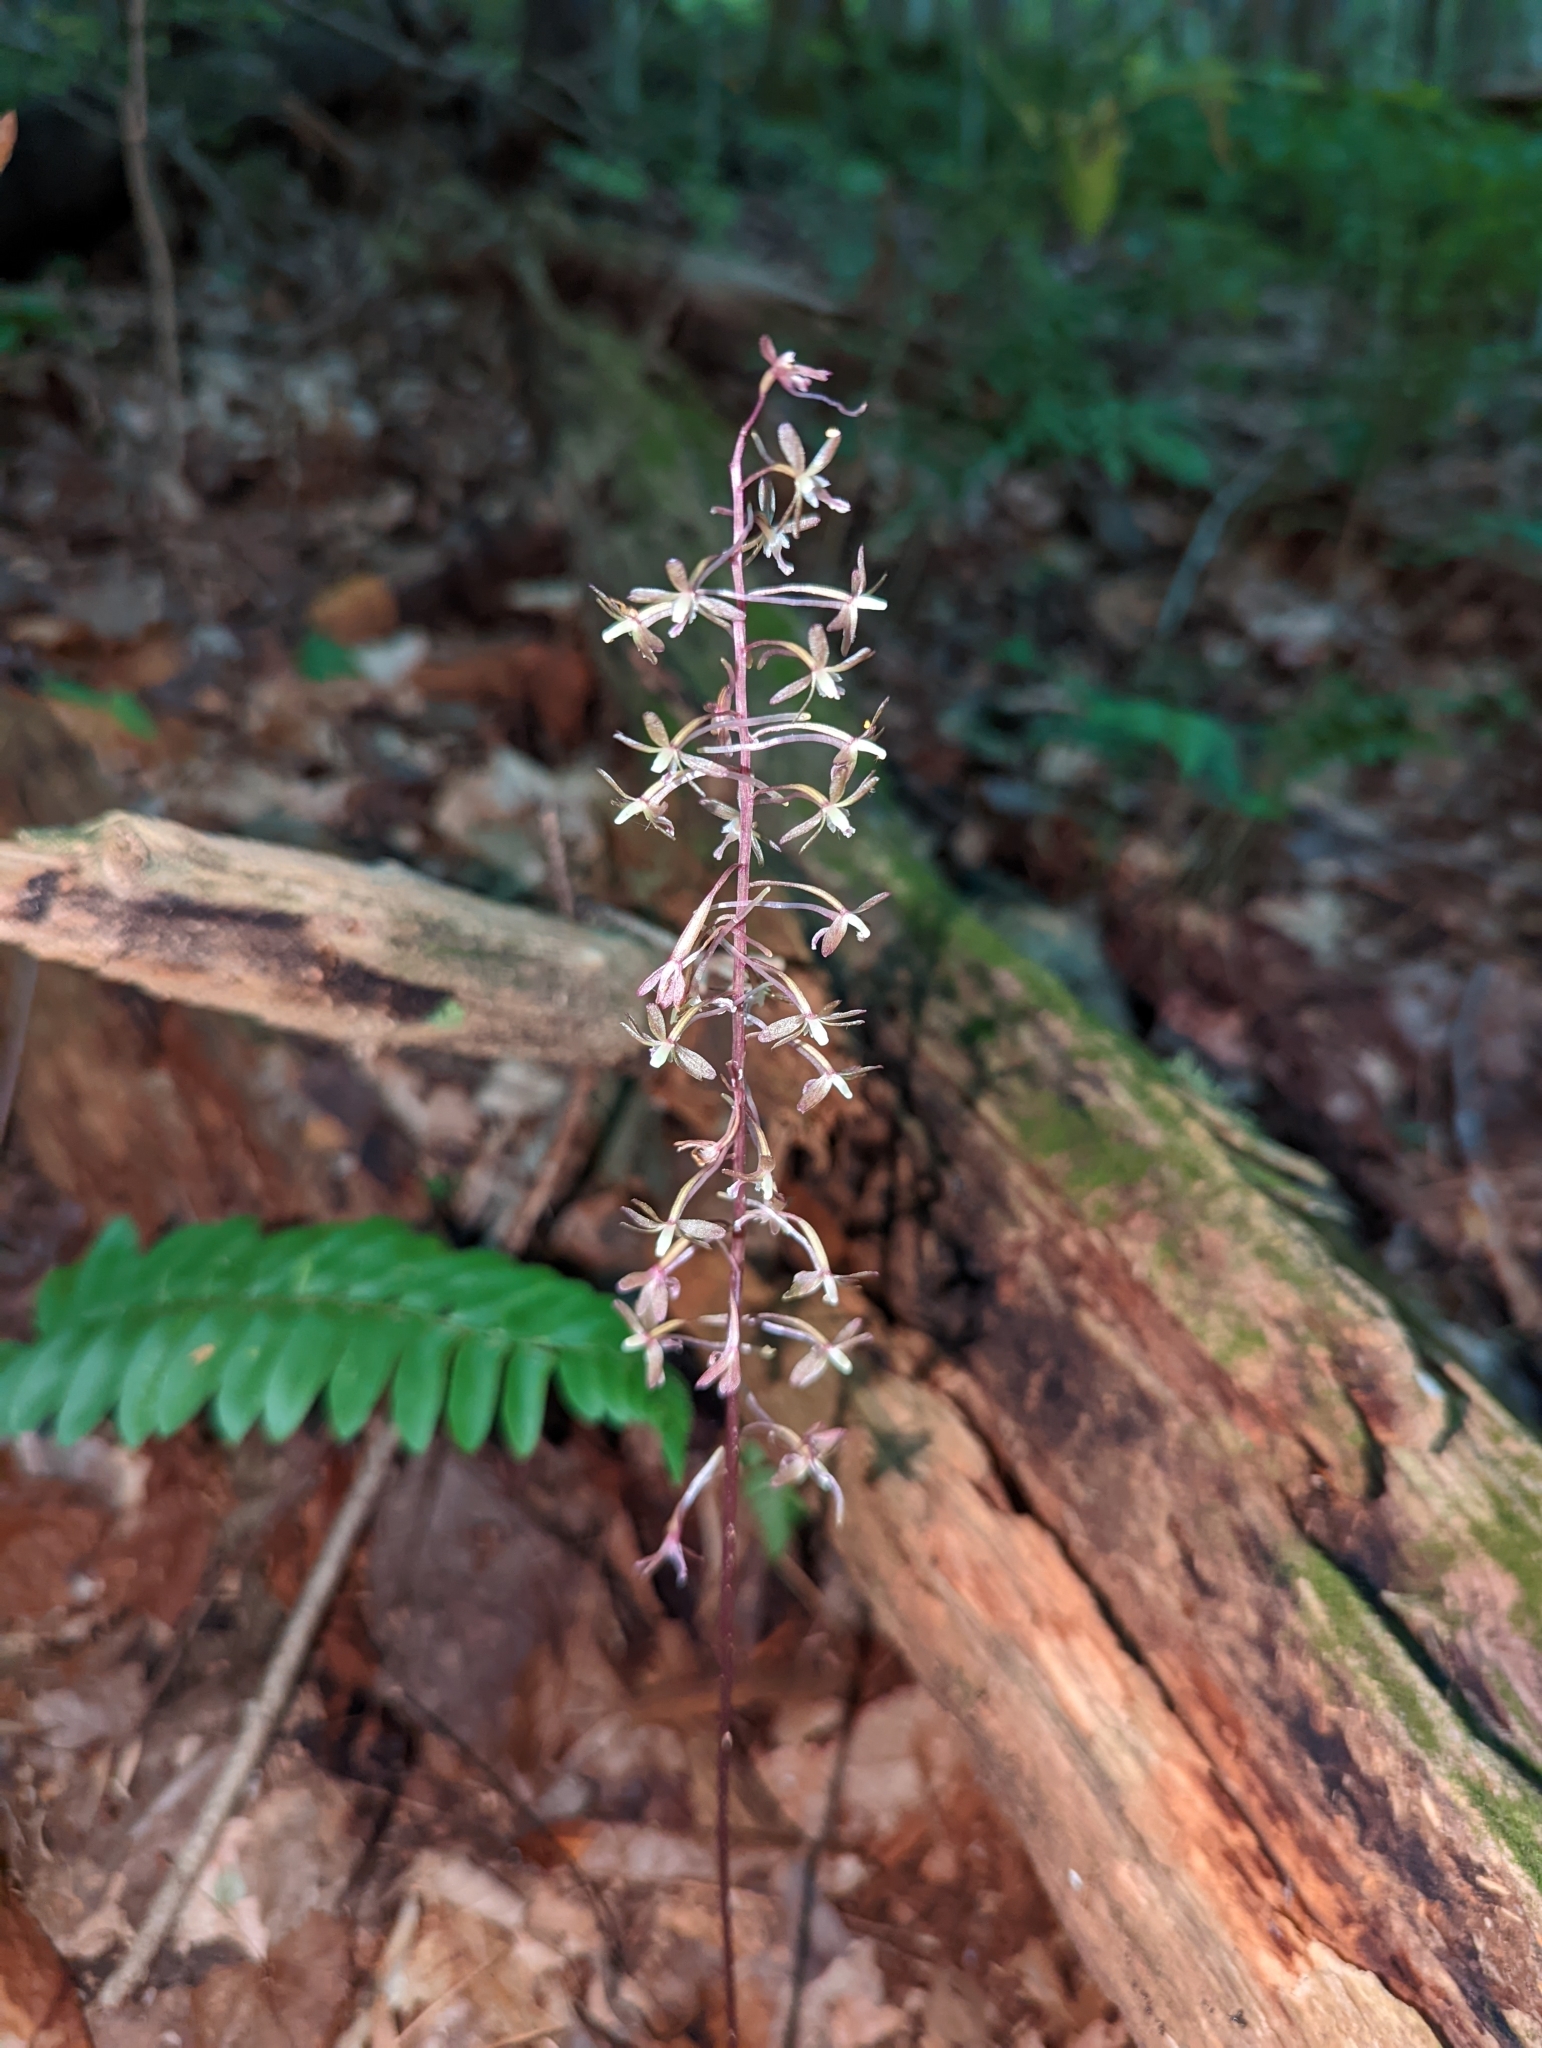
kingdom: Plantae
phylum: Tracheophyta
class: Liliopsida
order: Asparagales
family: Orchidaceae
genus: Tipularia
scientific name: Tipularia discolor
